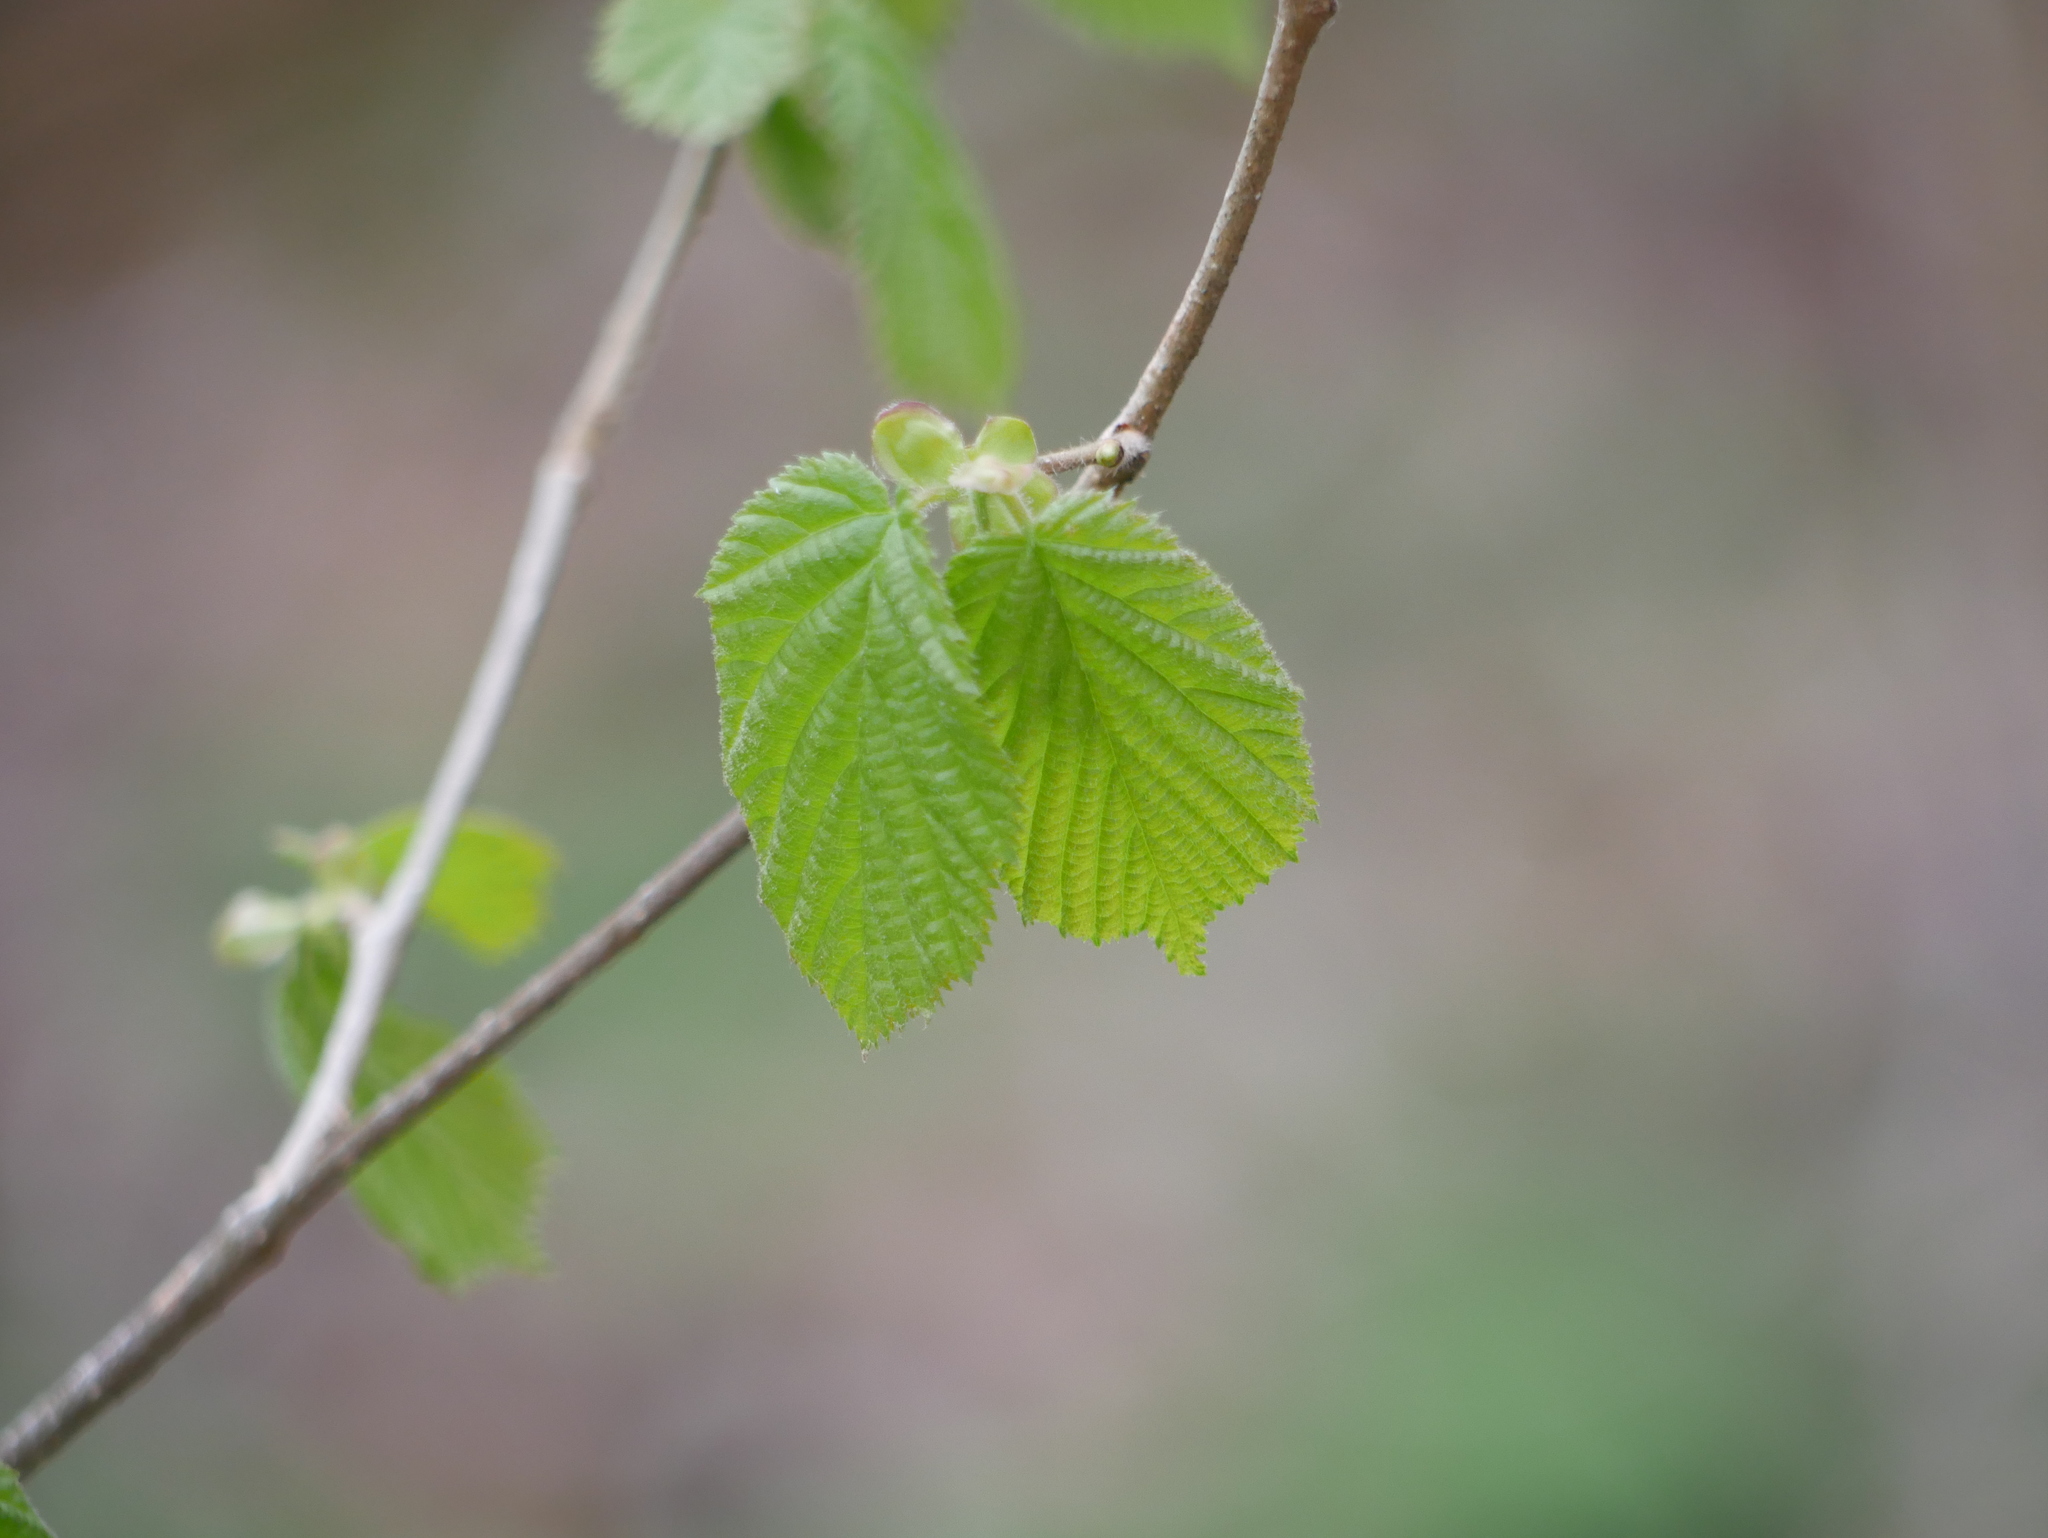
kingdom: Plantae
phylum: Tracheophyta
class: Magnoliopsida
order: Fagales
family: Betulaceae
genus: Corylus
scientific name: Corylus avellana
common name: European hazel
